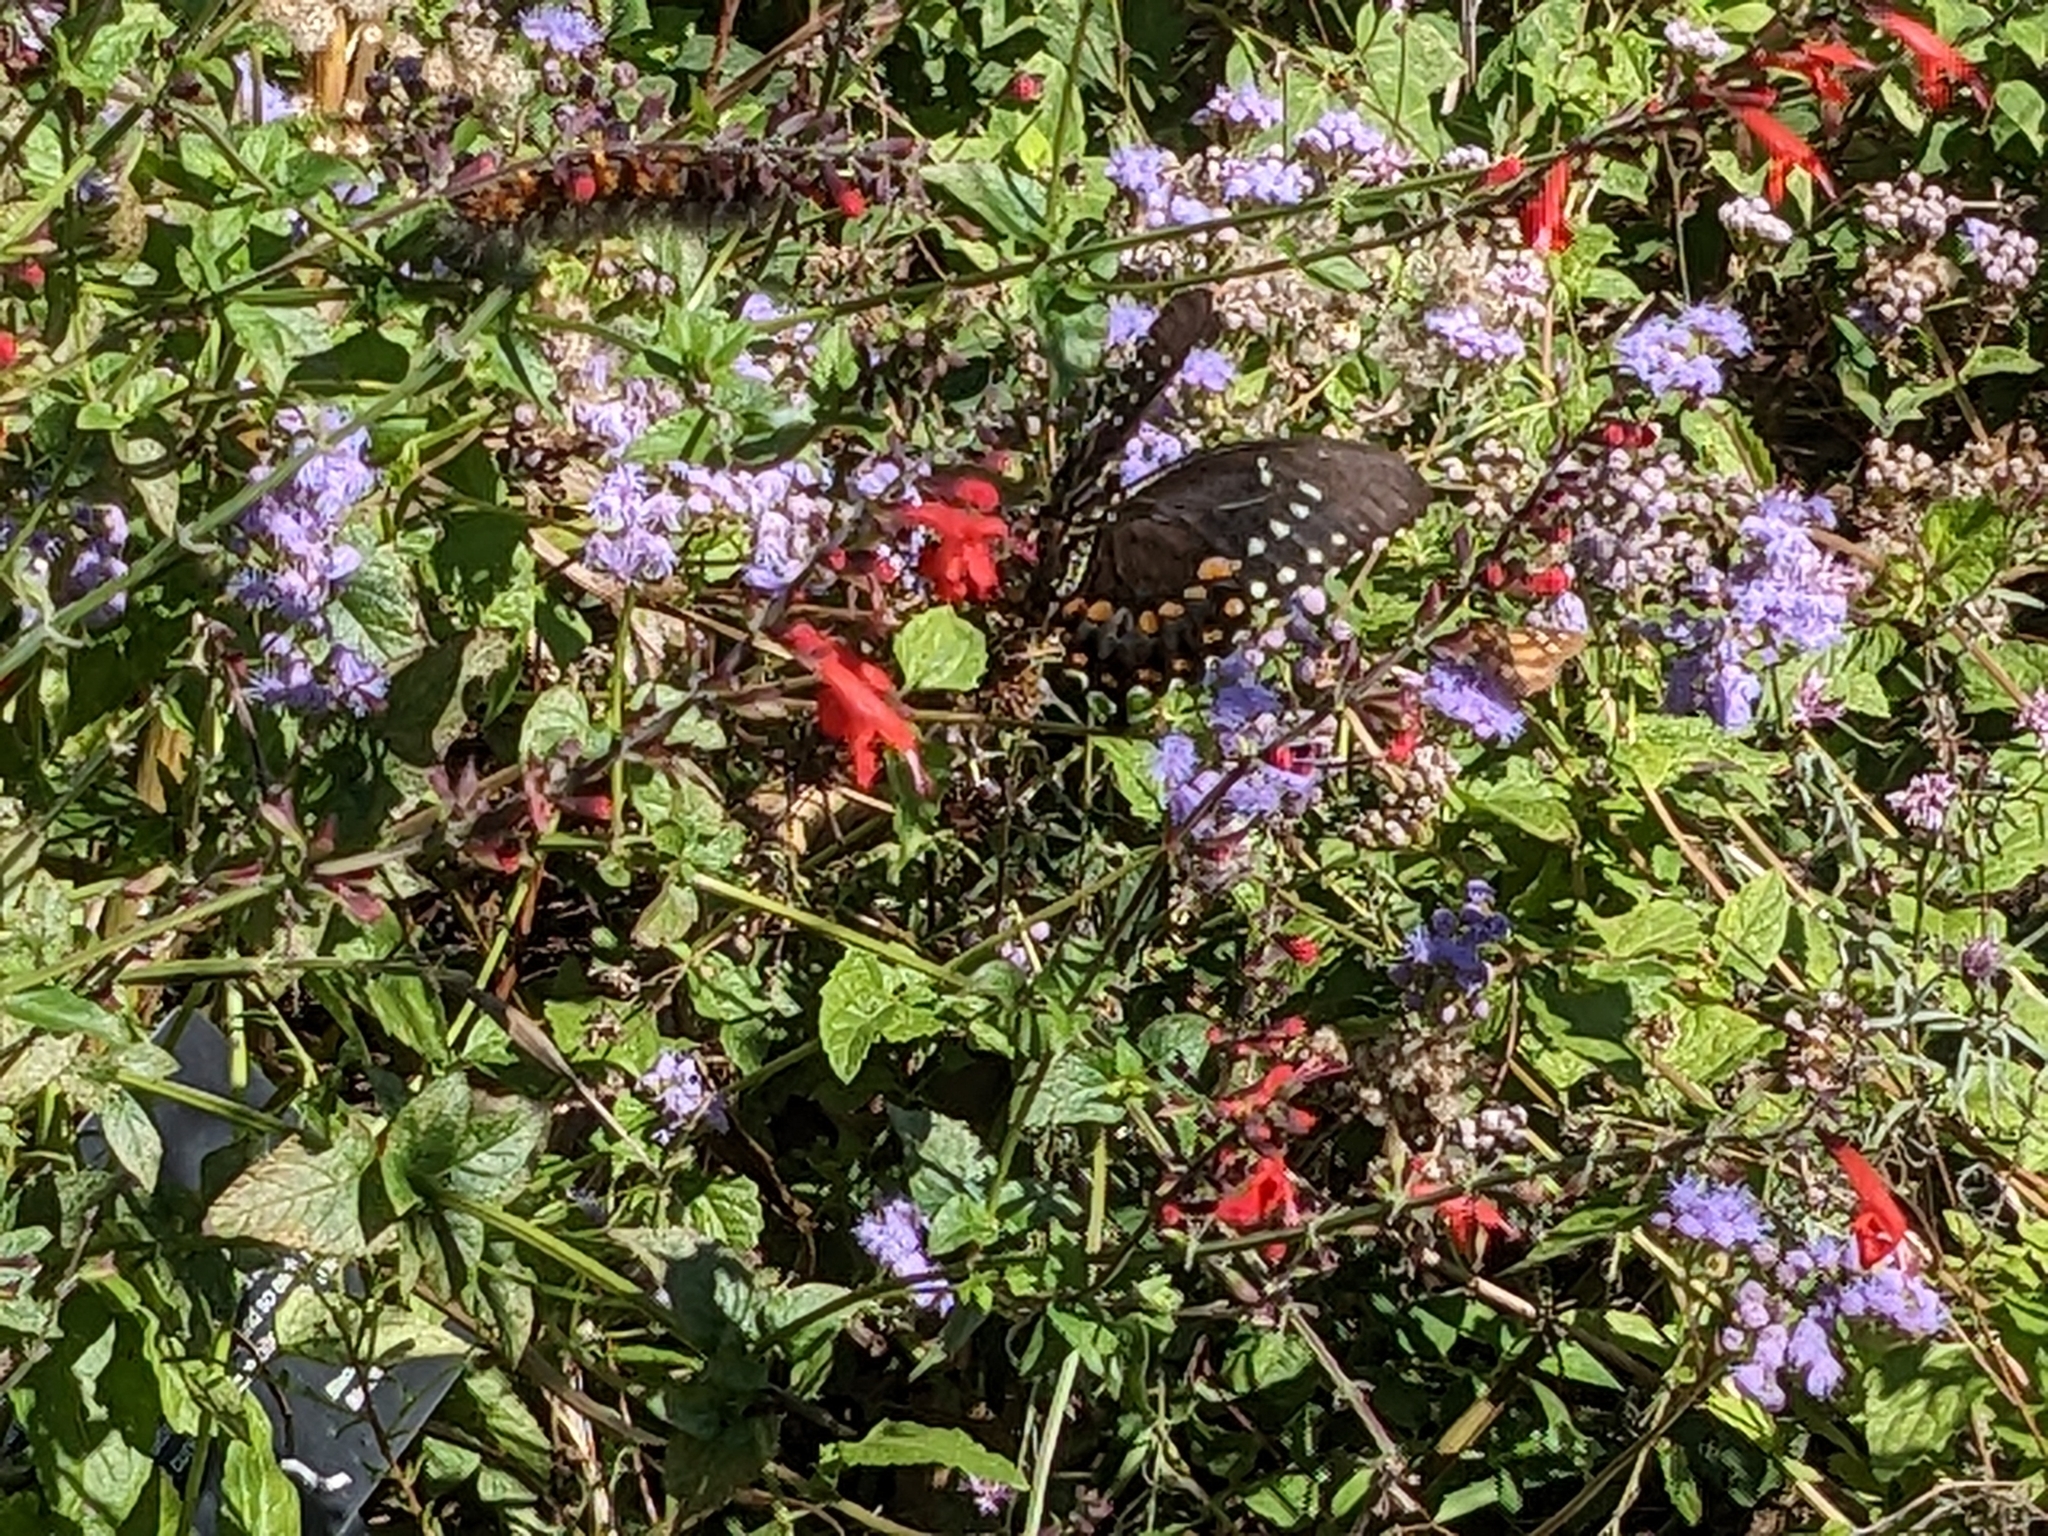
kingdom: Animalia
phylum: Arthropoda
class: Insecta
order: Lepidoptera
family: Papilionidae
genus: Papilio
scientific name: Papilio troilus
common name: Spicebush swallowtail
